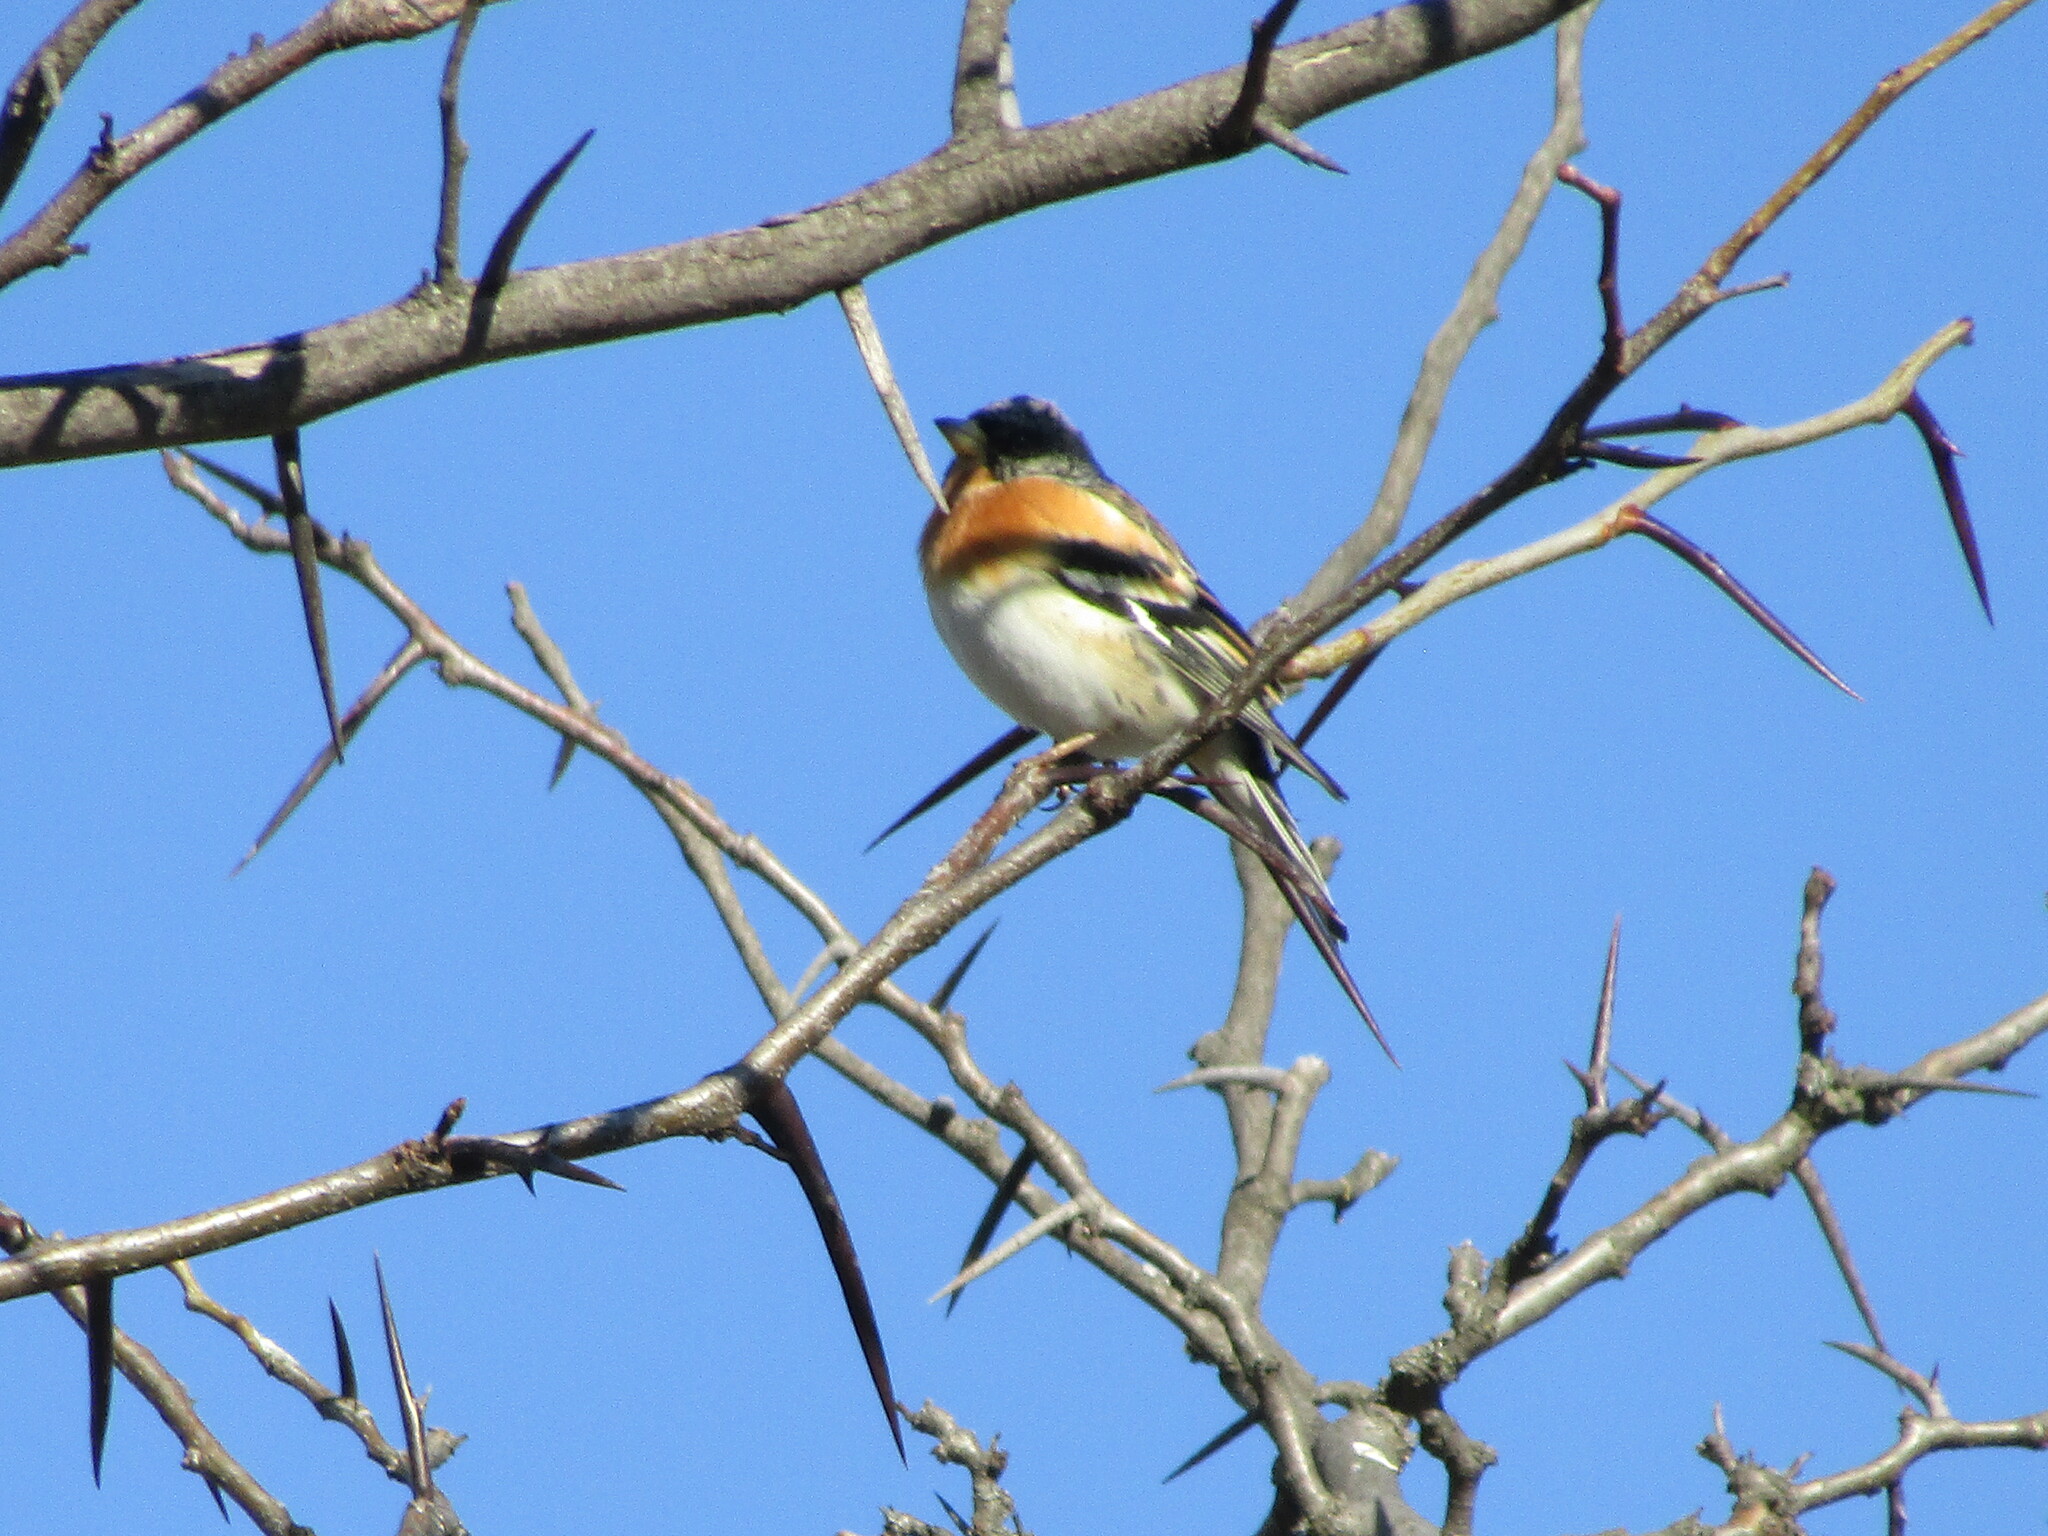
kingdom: Animalia
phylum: Chordata
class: Aves
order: Passeriformes
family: Fringillidae
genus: Fringilla
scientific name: Fringilla montifringilla
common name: Brambling
